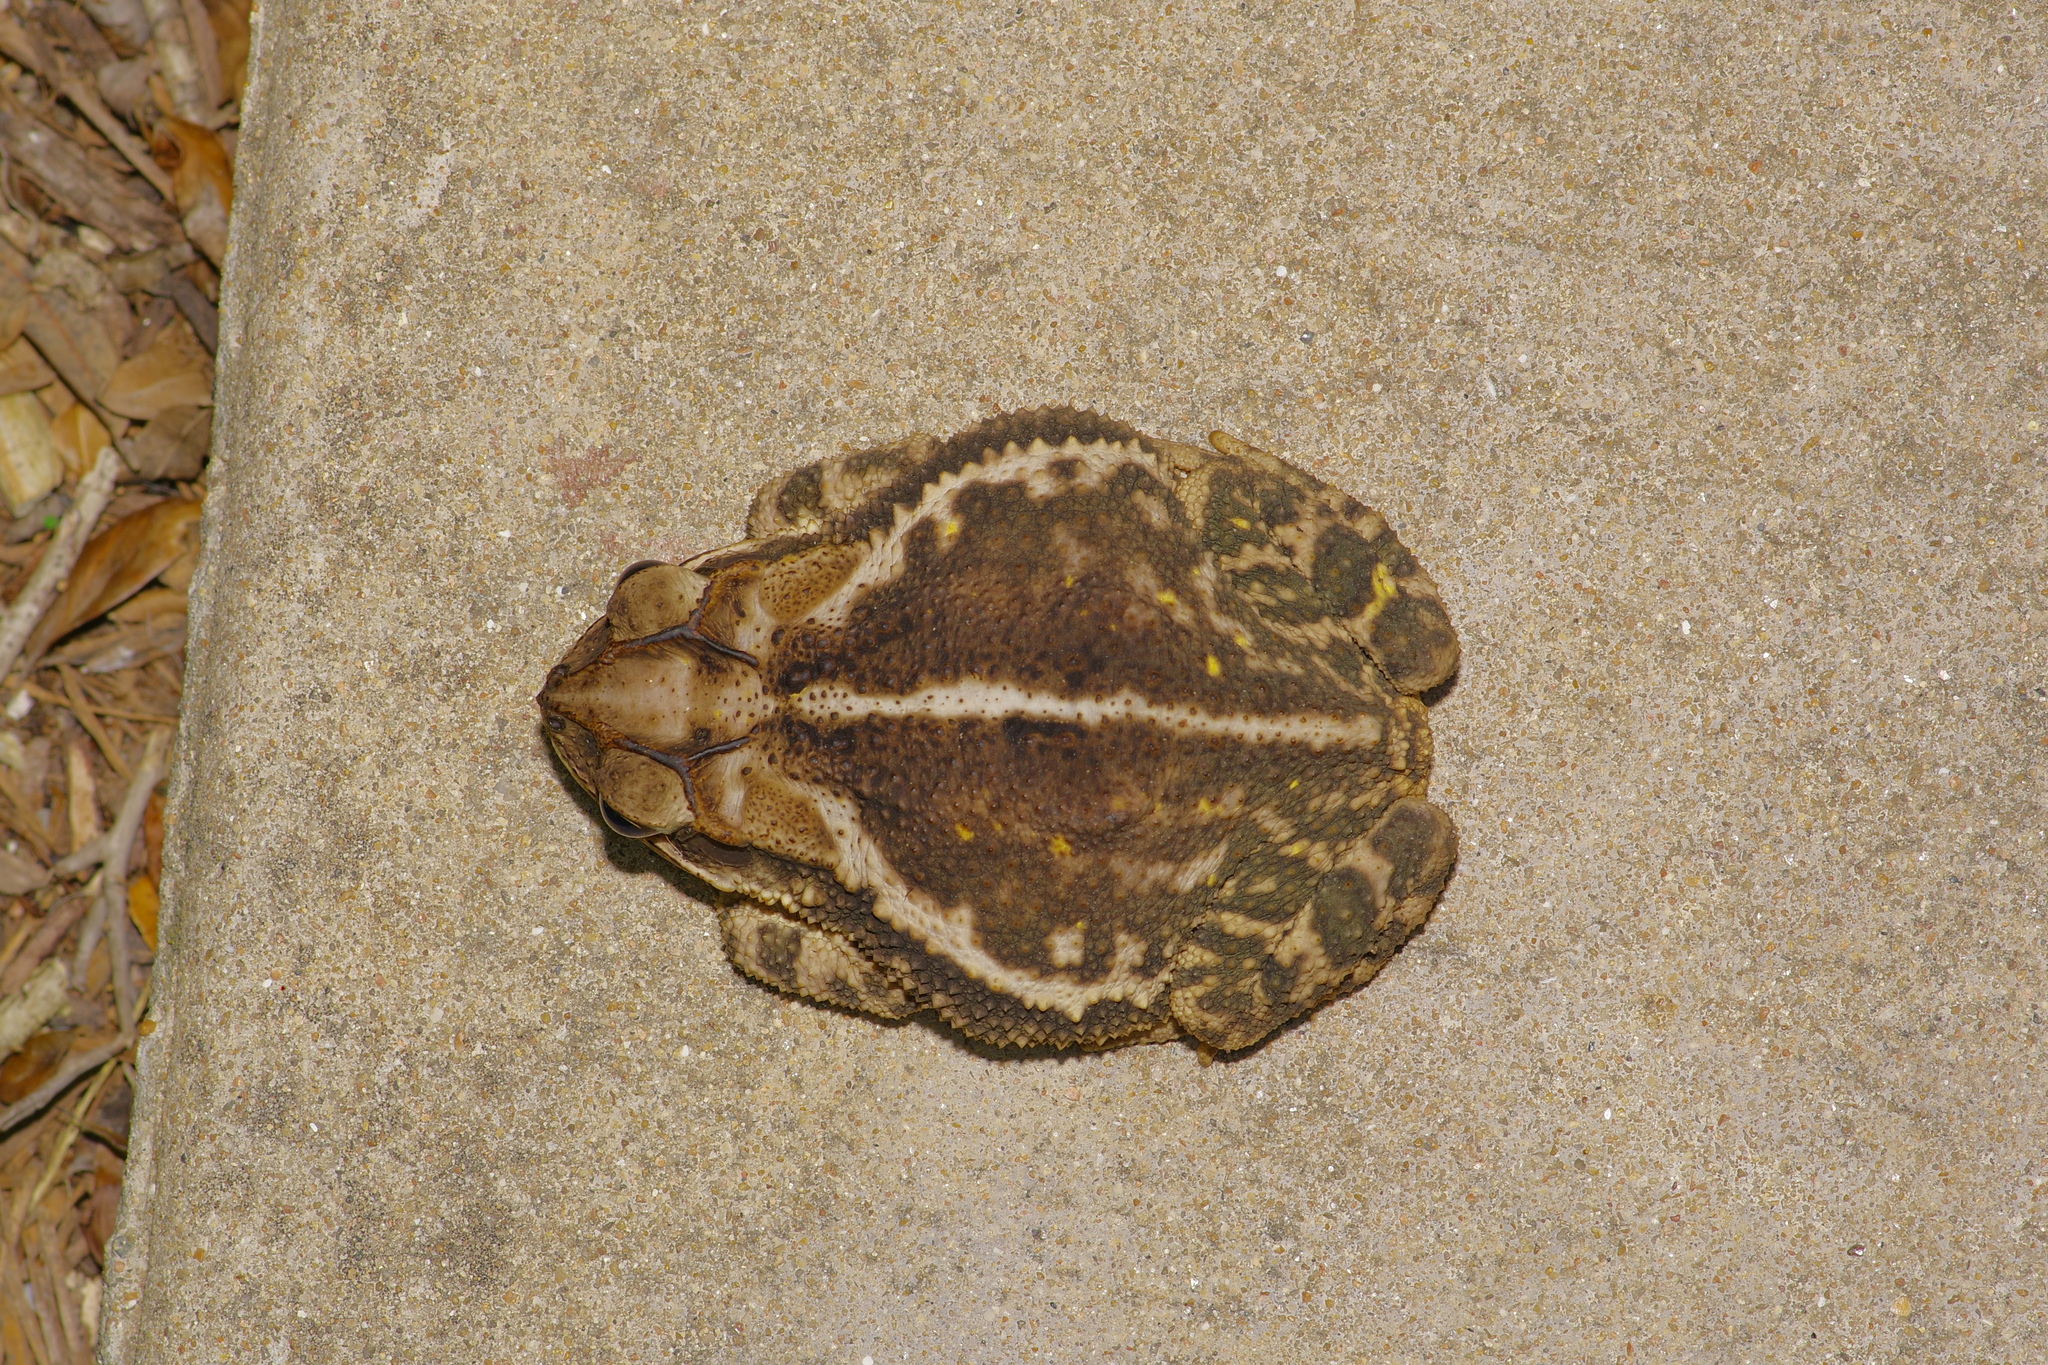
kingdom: Animalia
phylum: Chordata
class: Amphibia
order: Anura
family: Bufonidae
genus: Incilius
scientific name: Incilius nebulifer
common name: Gulf coast toad
